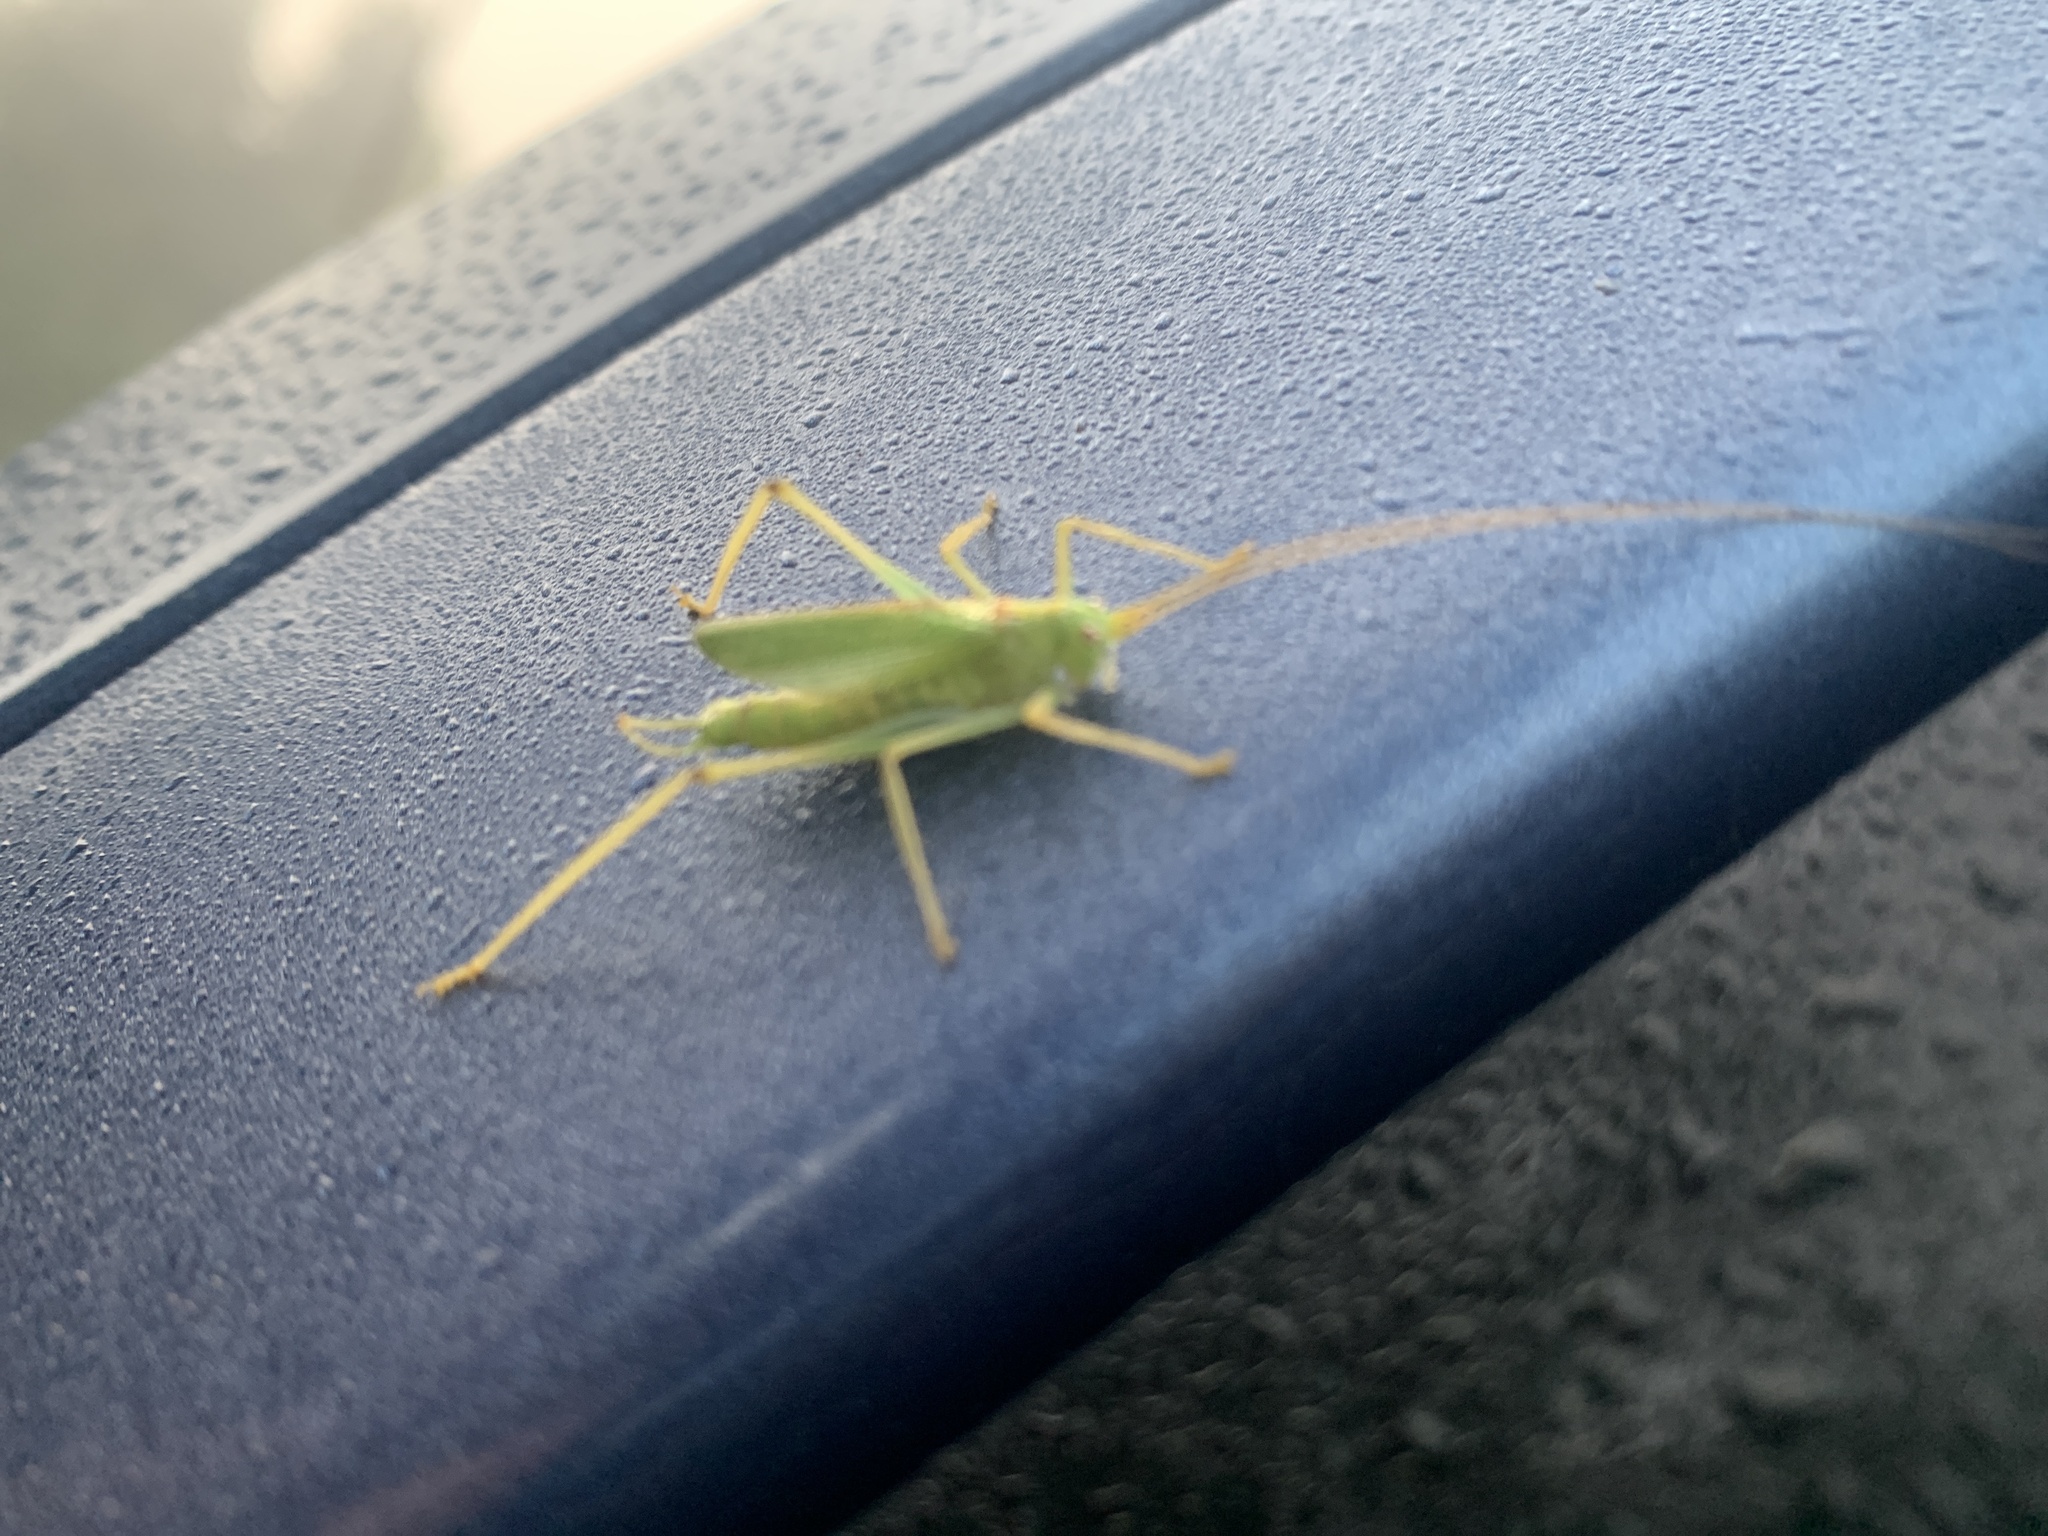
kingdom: Animalia
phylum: Arthropoda
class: Insecta
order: Orthoptera
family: Tettigoniidae
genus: Meconema
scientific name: Meconema thalassinum
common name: Oak bush-cricket
